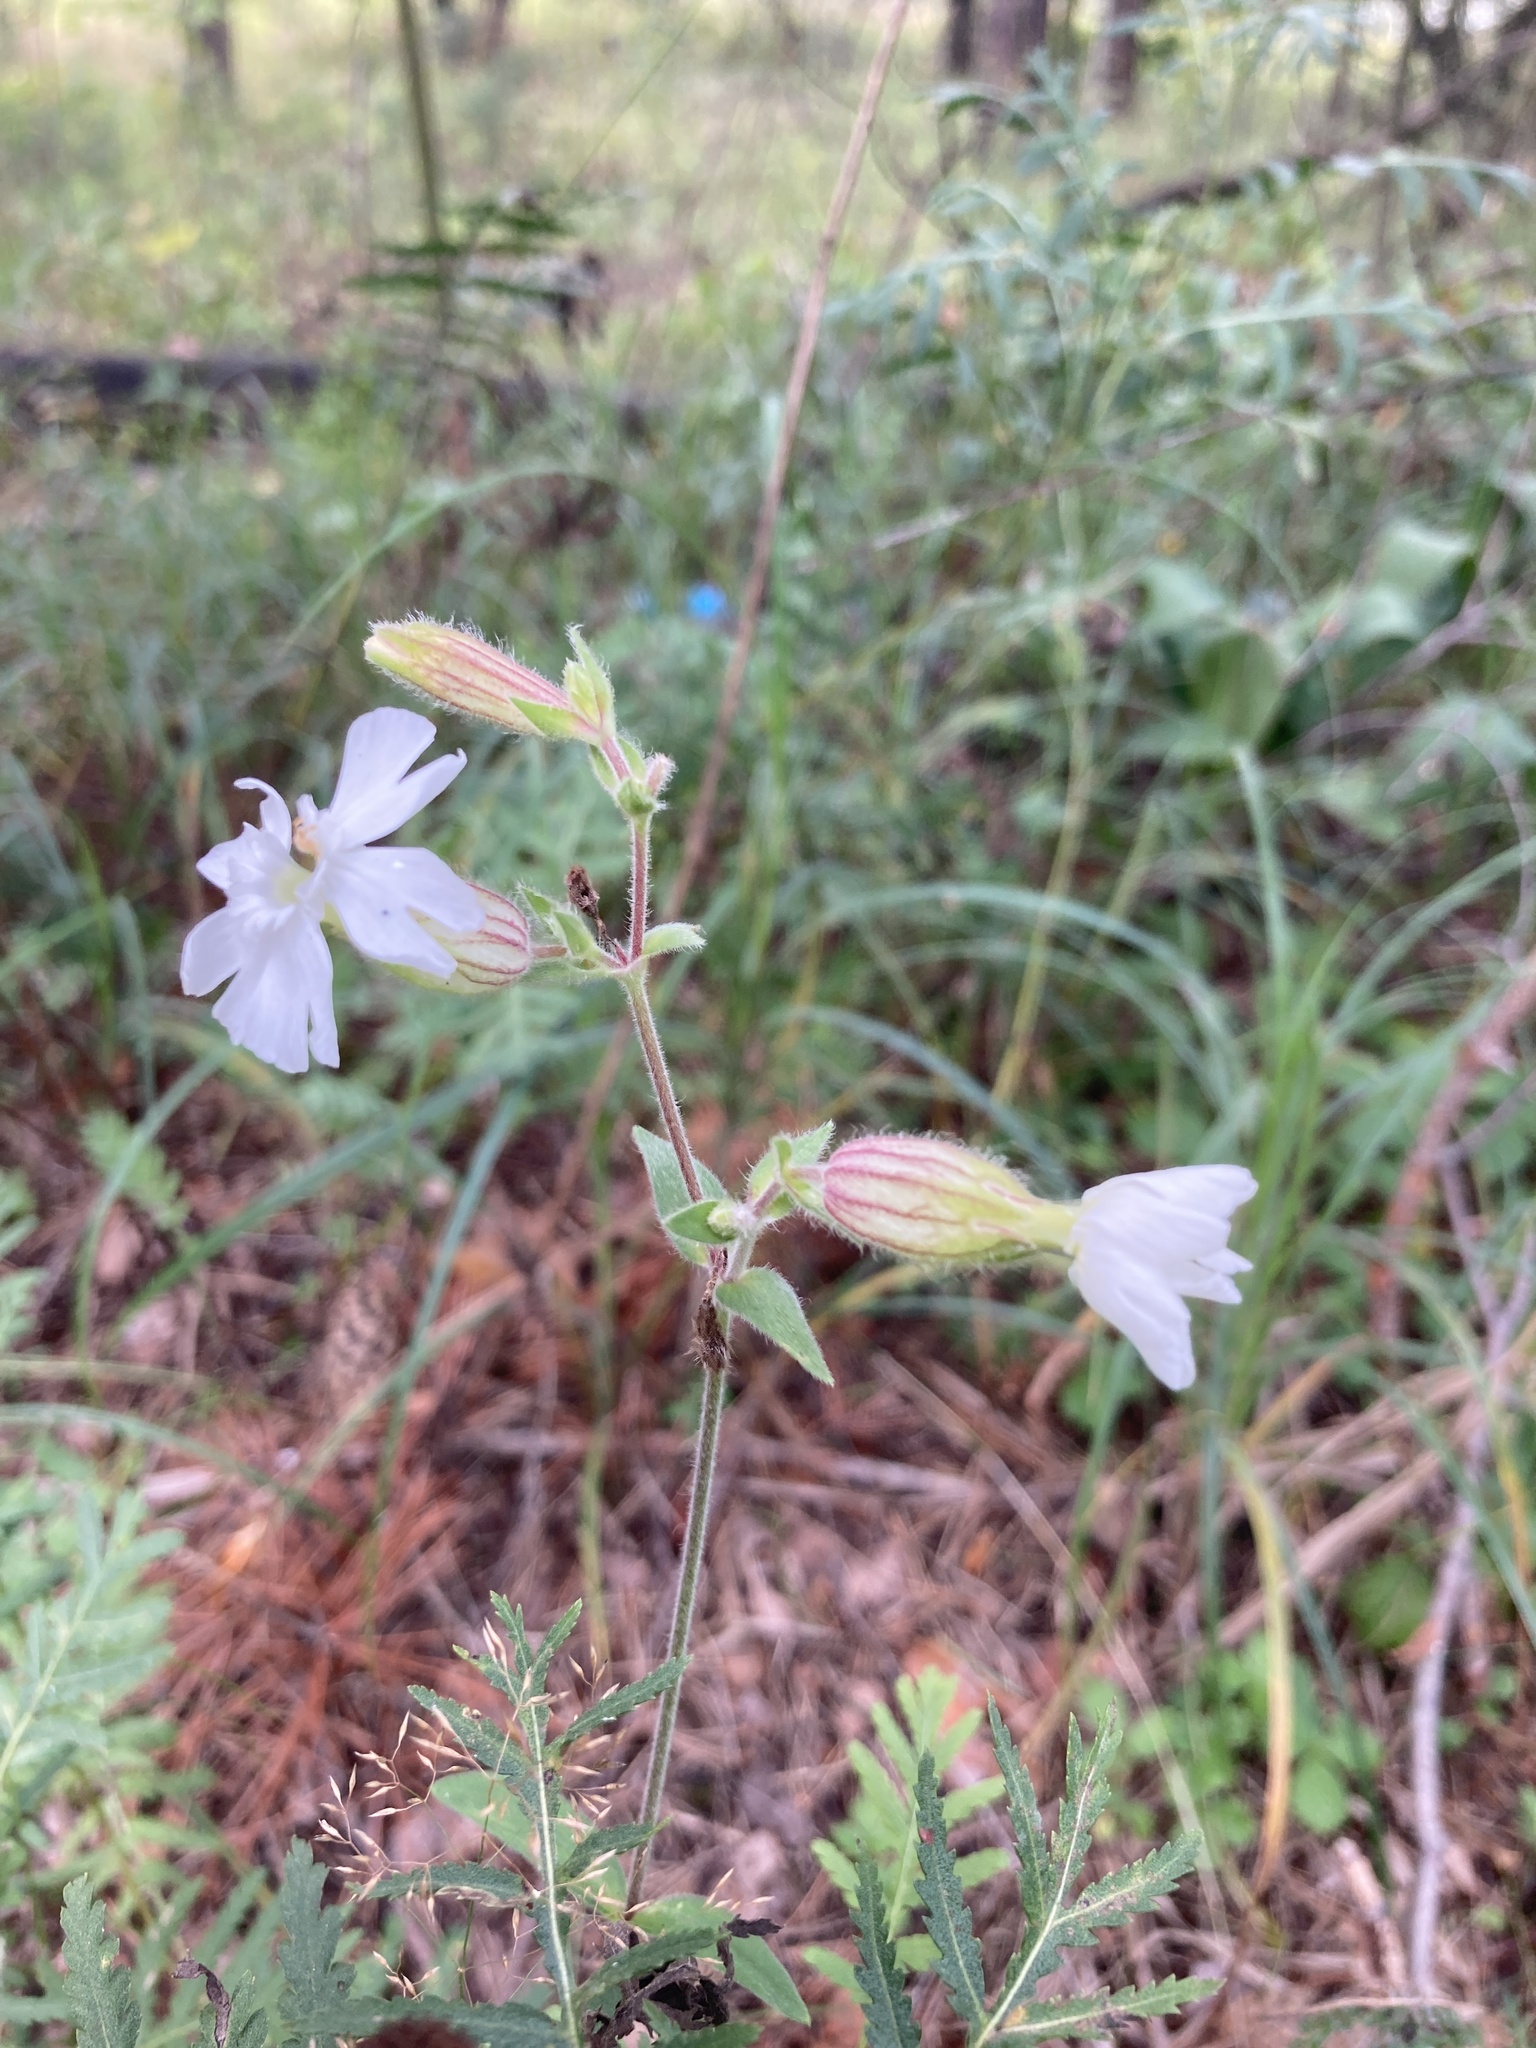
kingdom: Plantae
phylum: Tracheophyta
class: Magnoliopsida
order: Caryophyllales
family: Caryophyllaceae
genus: Silene
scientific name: Silene latifolia
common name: White campion
